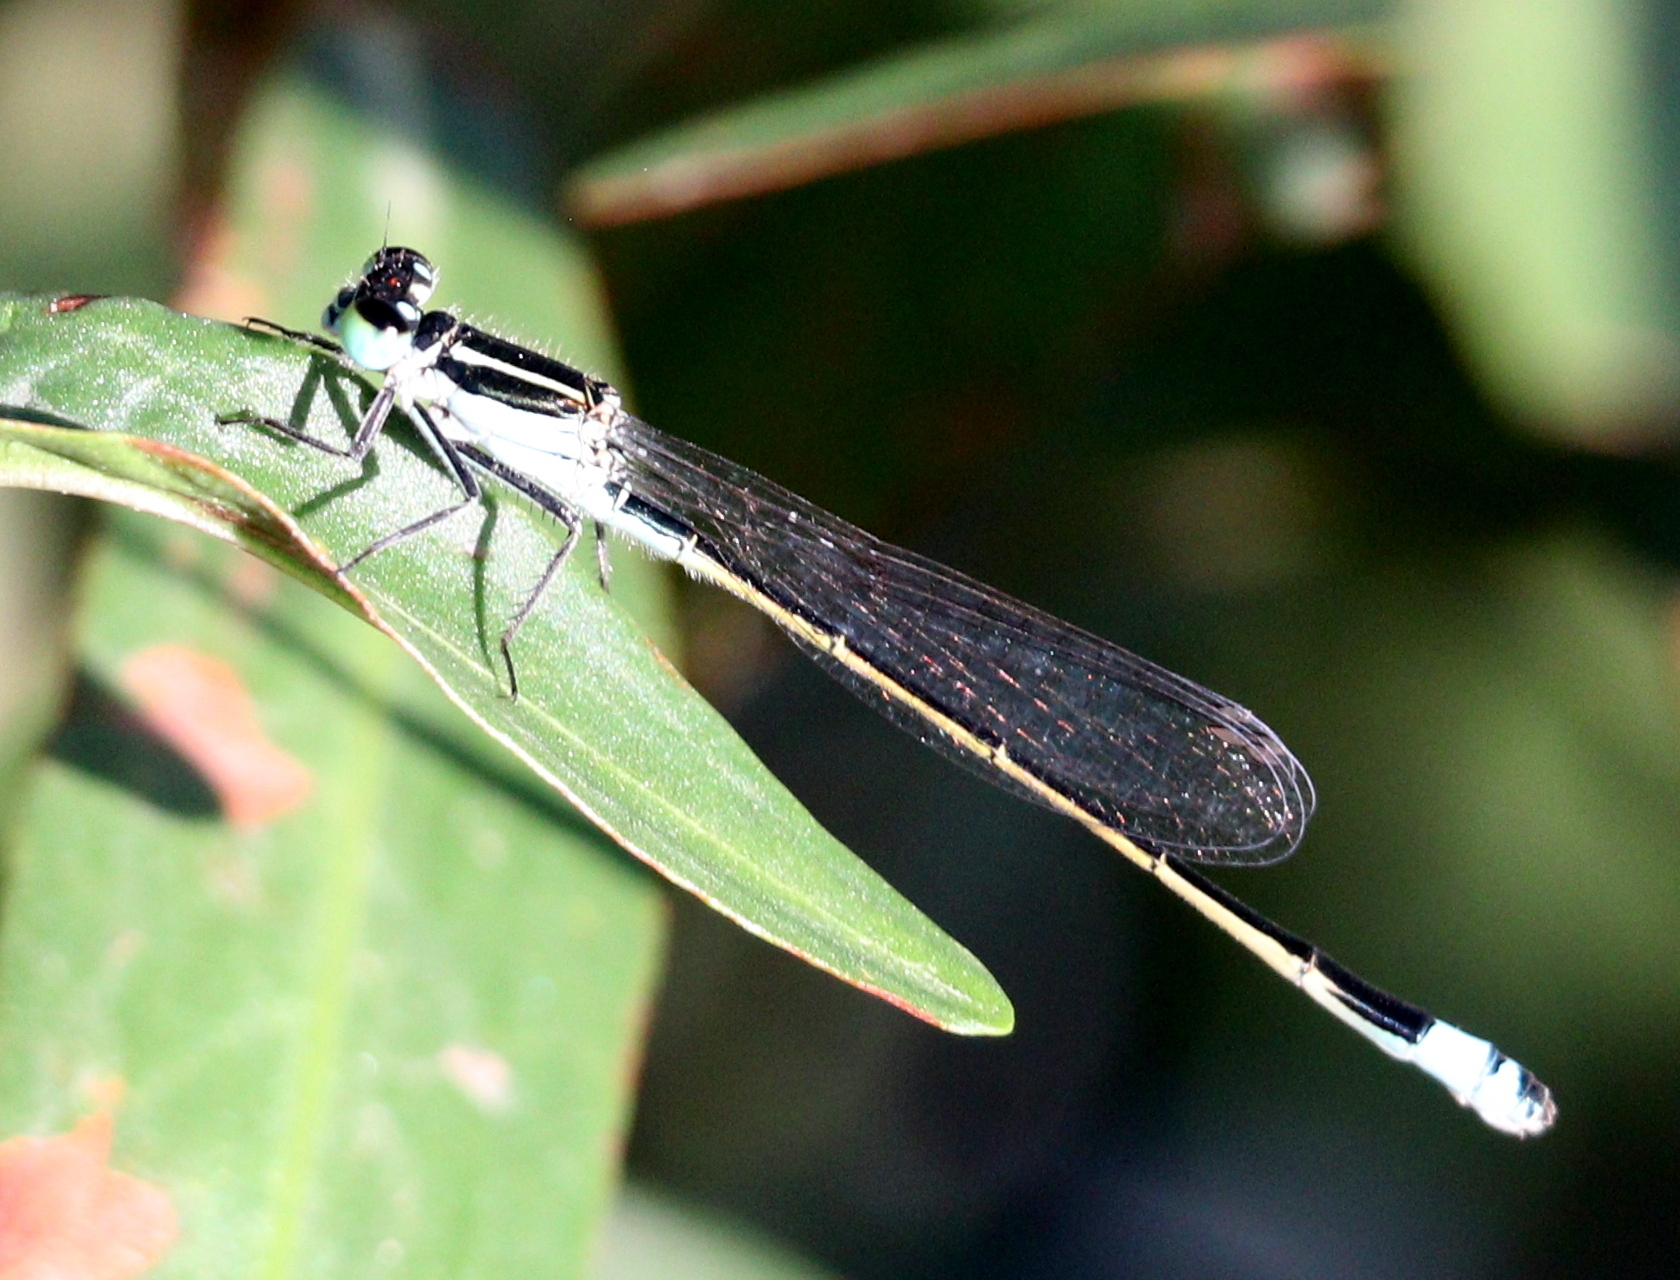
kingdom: Animalia
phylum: Arthropoda
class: Insecta
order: Odonata
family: Coenagrionidae
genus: Ischnura
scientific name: Ischnura ramburii
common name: Rambur's forktail
